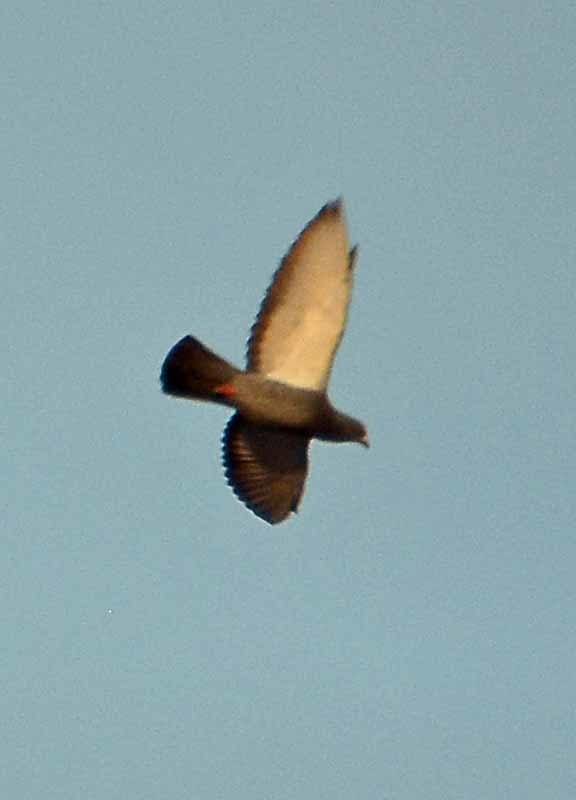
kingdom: Animalia
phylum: Chordata
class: Aves
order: Columbiformes
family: Columbidae
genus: Columba
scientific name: Columba livia
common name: Rock pigeon
